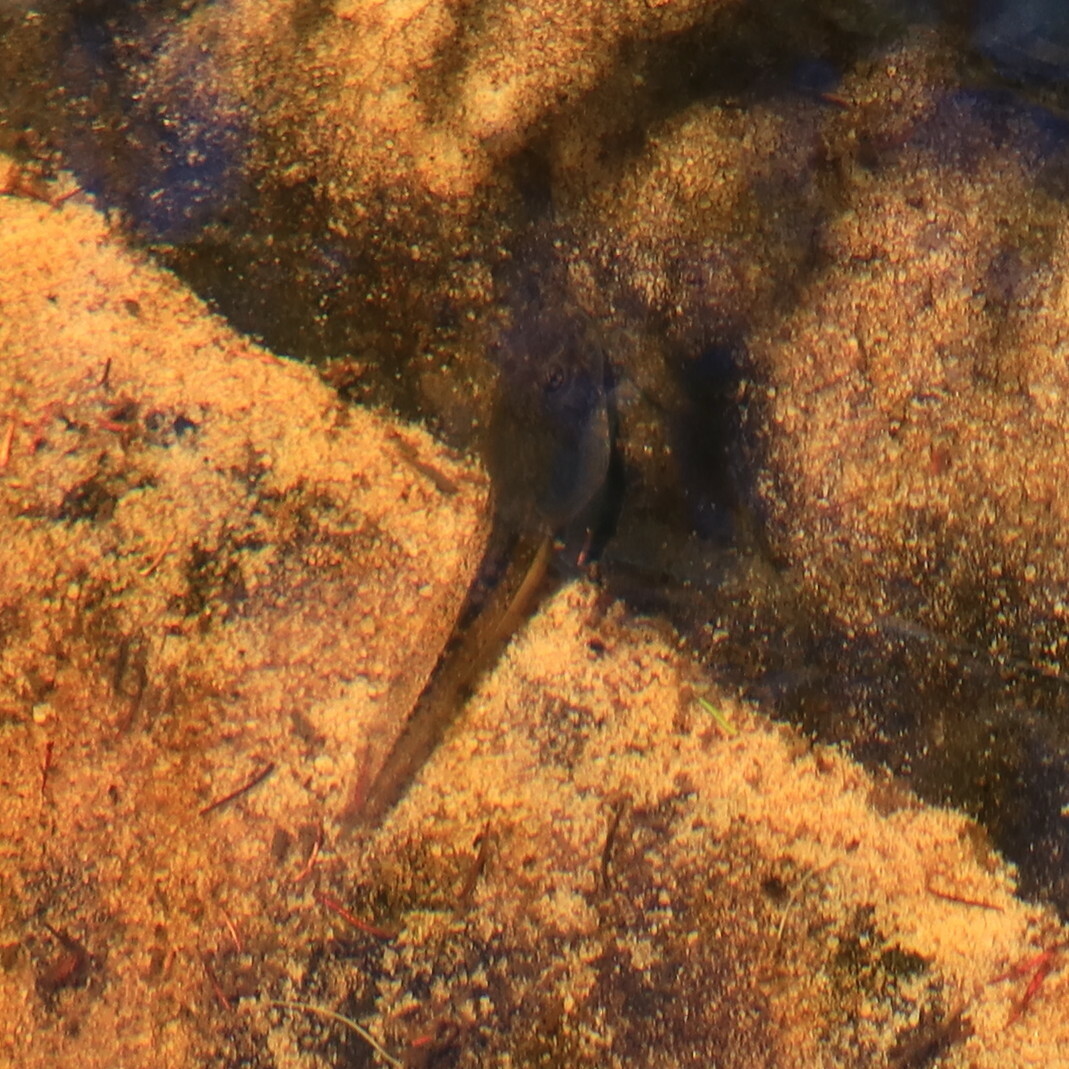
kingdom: Animalia
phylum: Chordata
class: Amphibia
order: Anura
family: Pyxicephalidae
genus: Amietia
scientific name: Amietia fuscigula
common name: Cape rana
